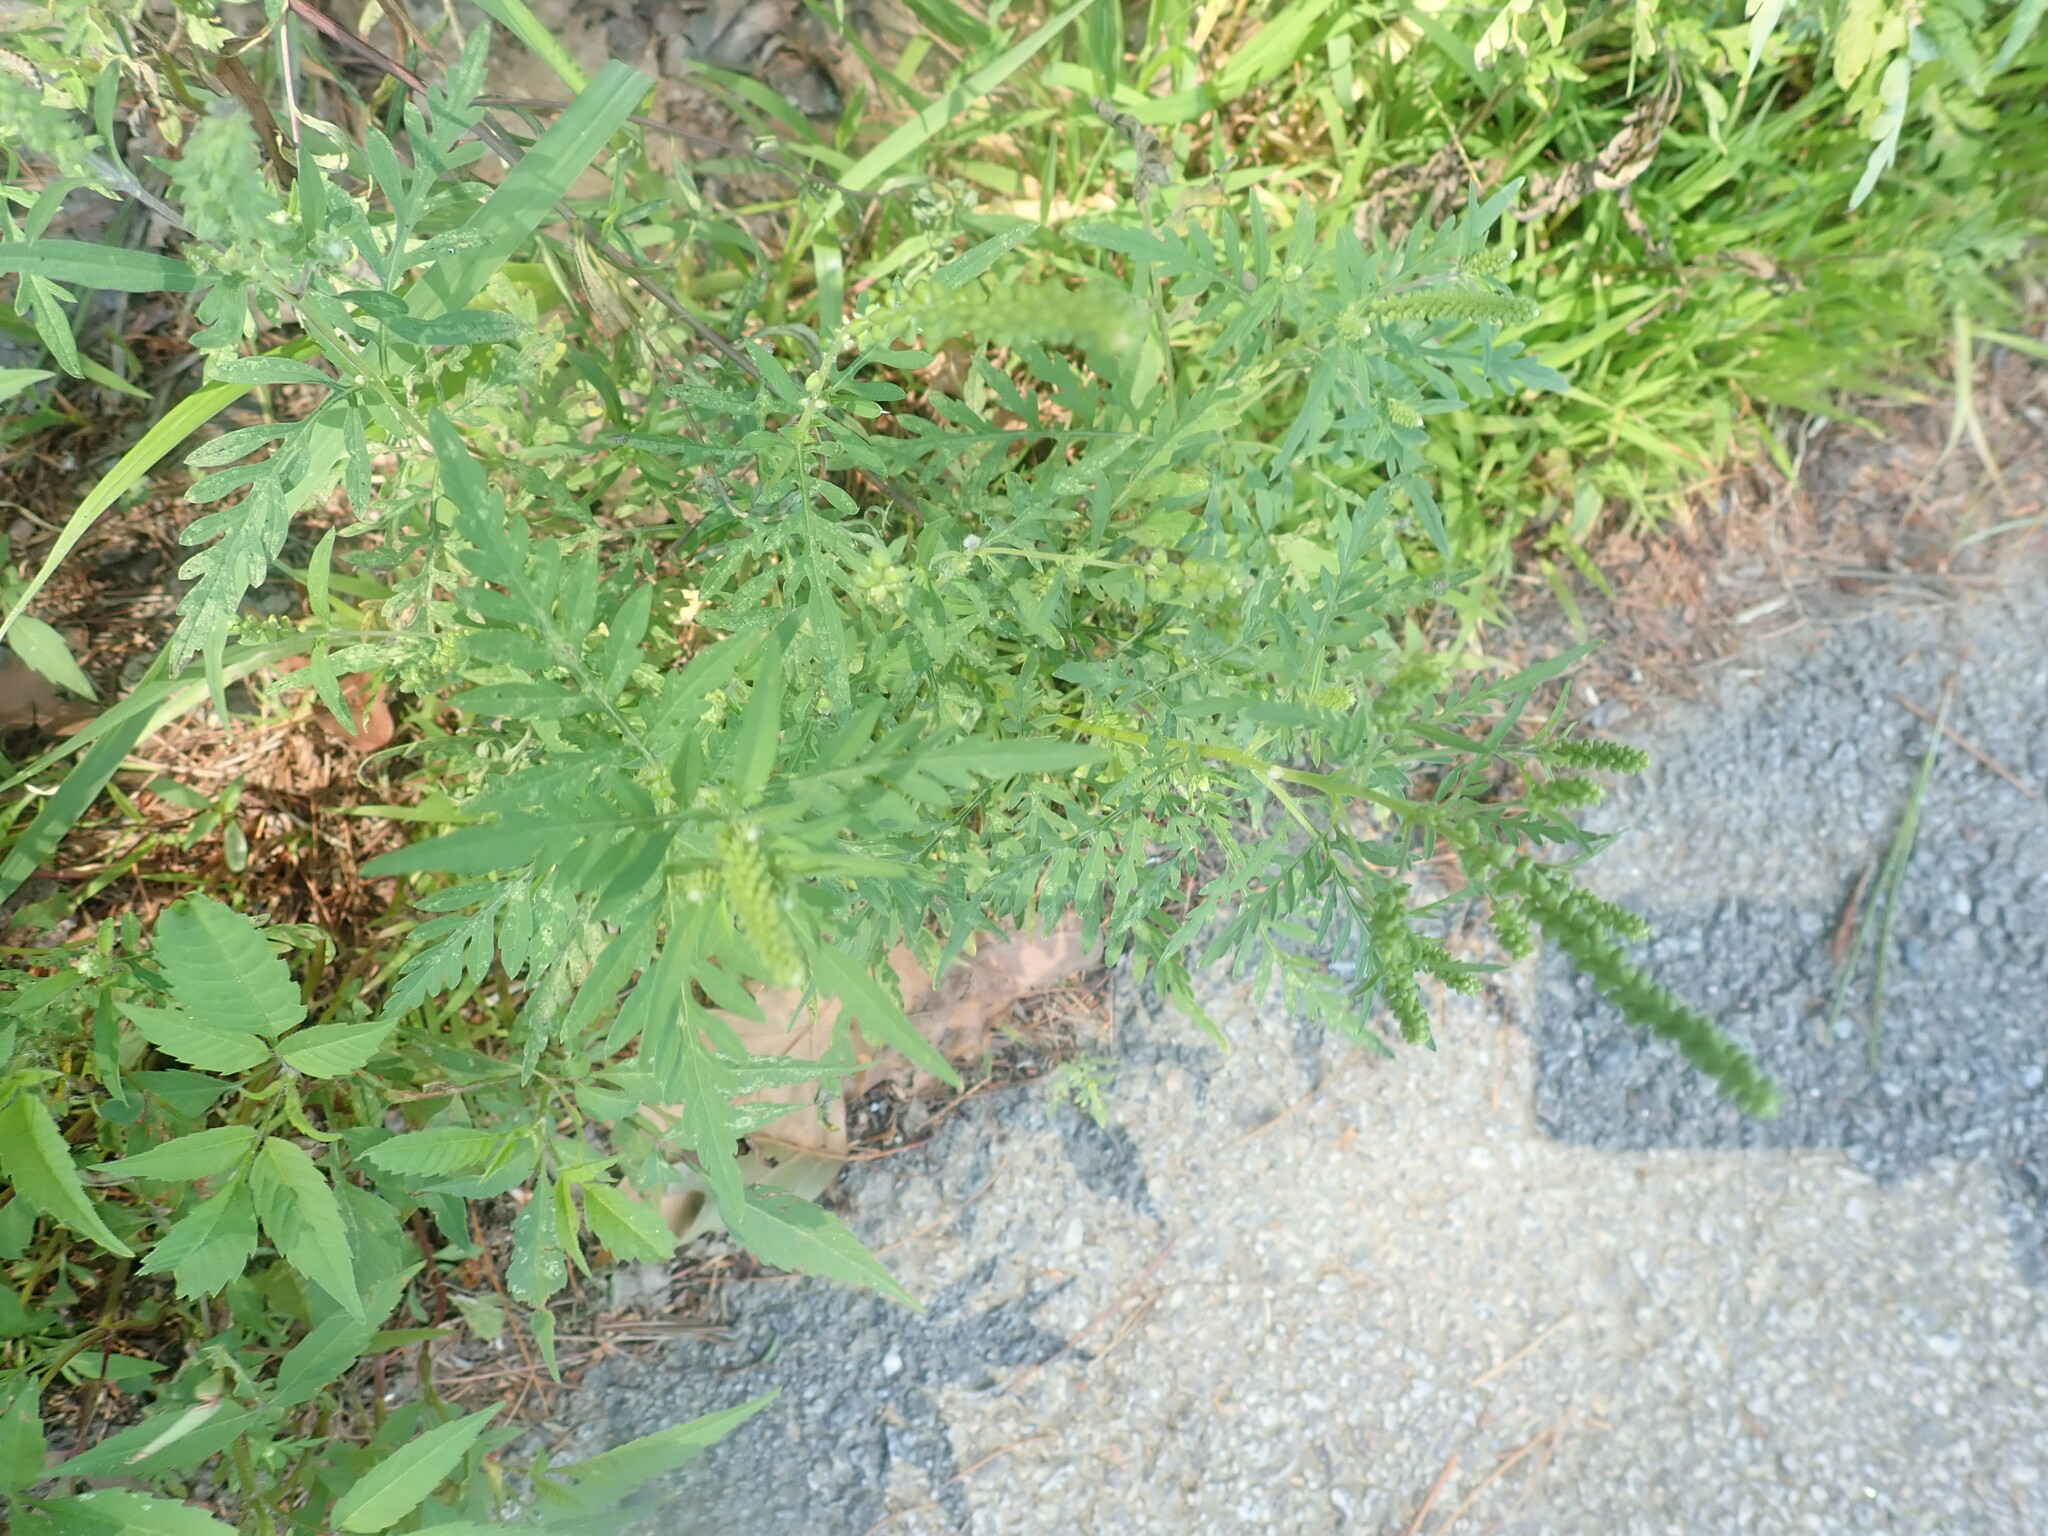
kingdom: Plantae
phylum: Tracheophyta
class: Magnoliopsida
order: Asterales
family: Asteraceae
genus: Ambrosia
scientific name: Ambrosia artemisiifolia
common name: Annual ragweed
